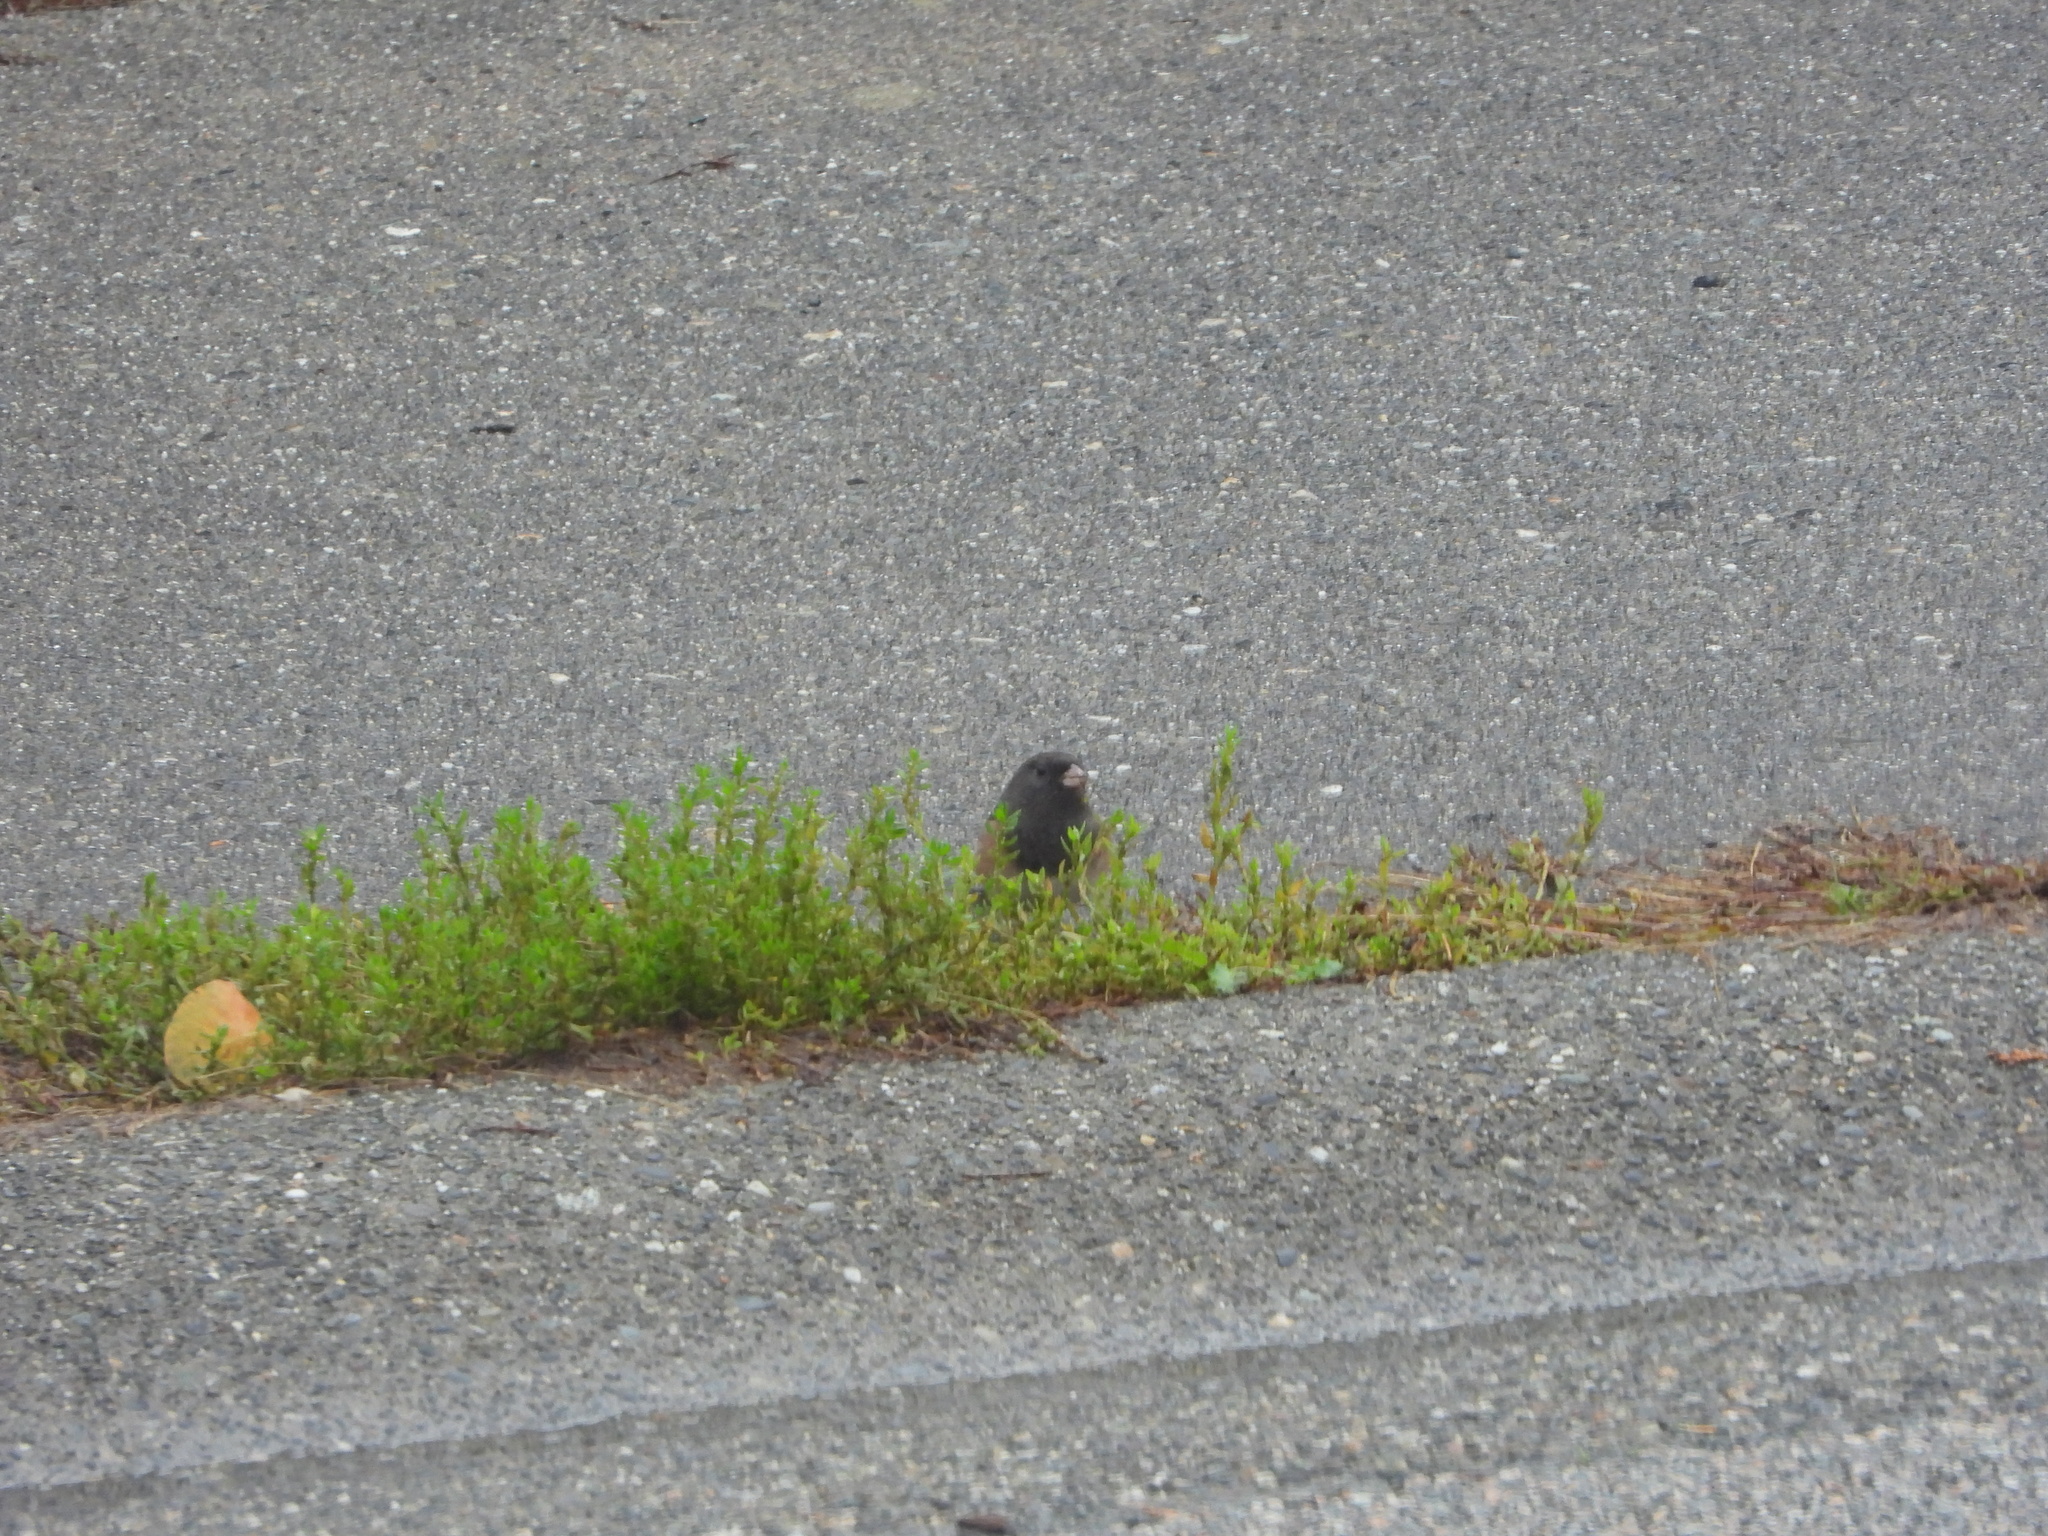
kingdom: Animalia
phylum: Chordata
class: Aves
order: Passeriformes
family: Passerellidae
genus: Junco
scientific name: Junco hyemalis
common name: Dark-eyed junco
